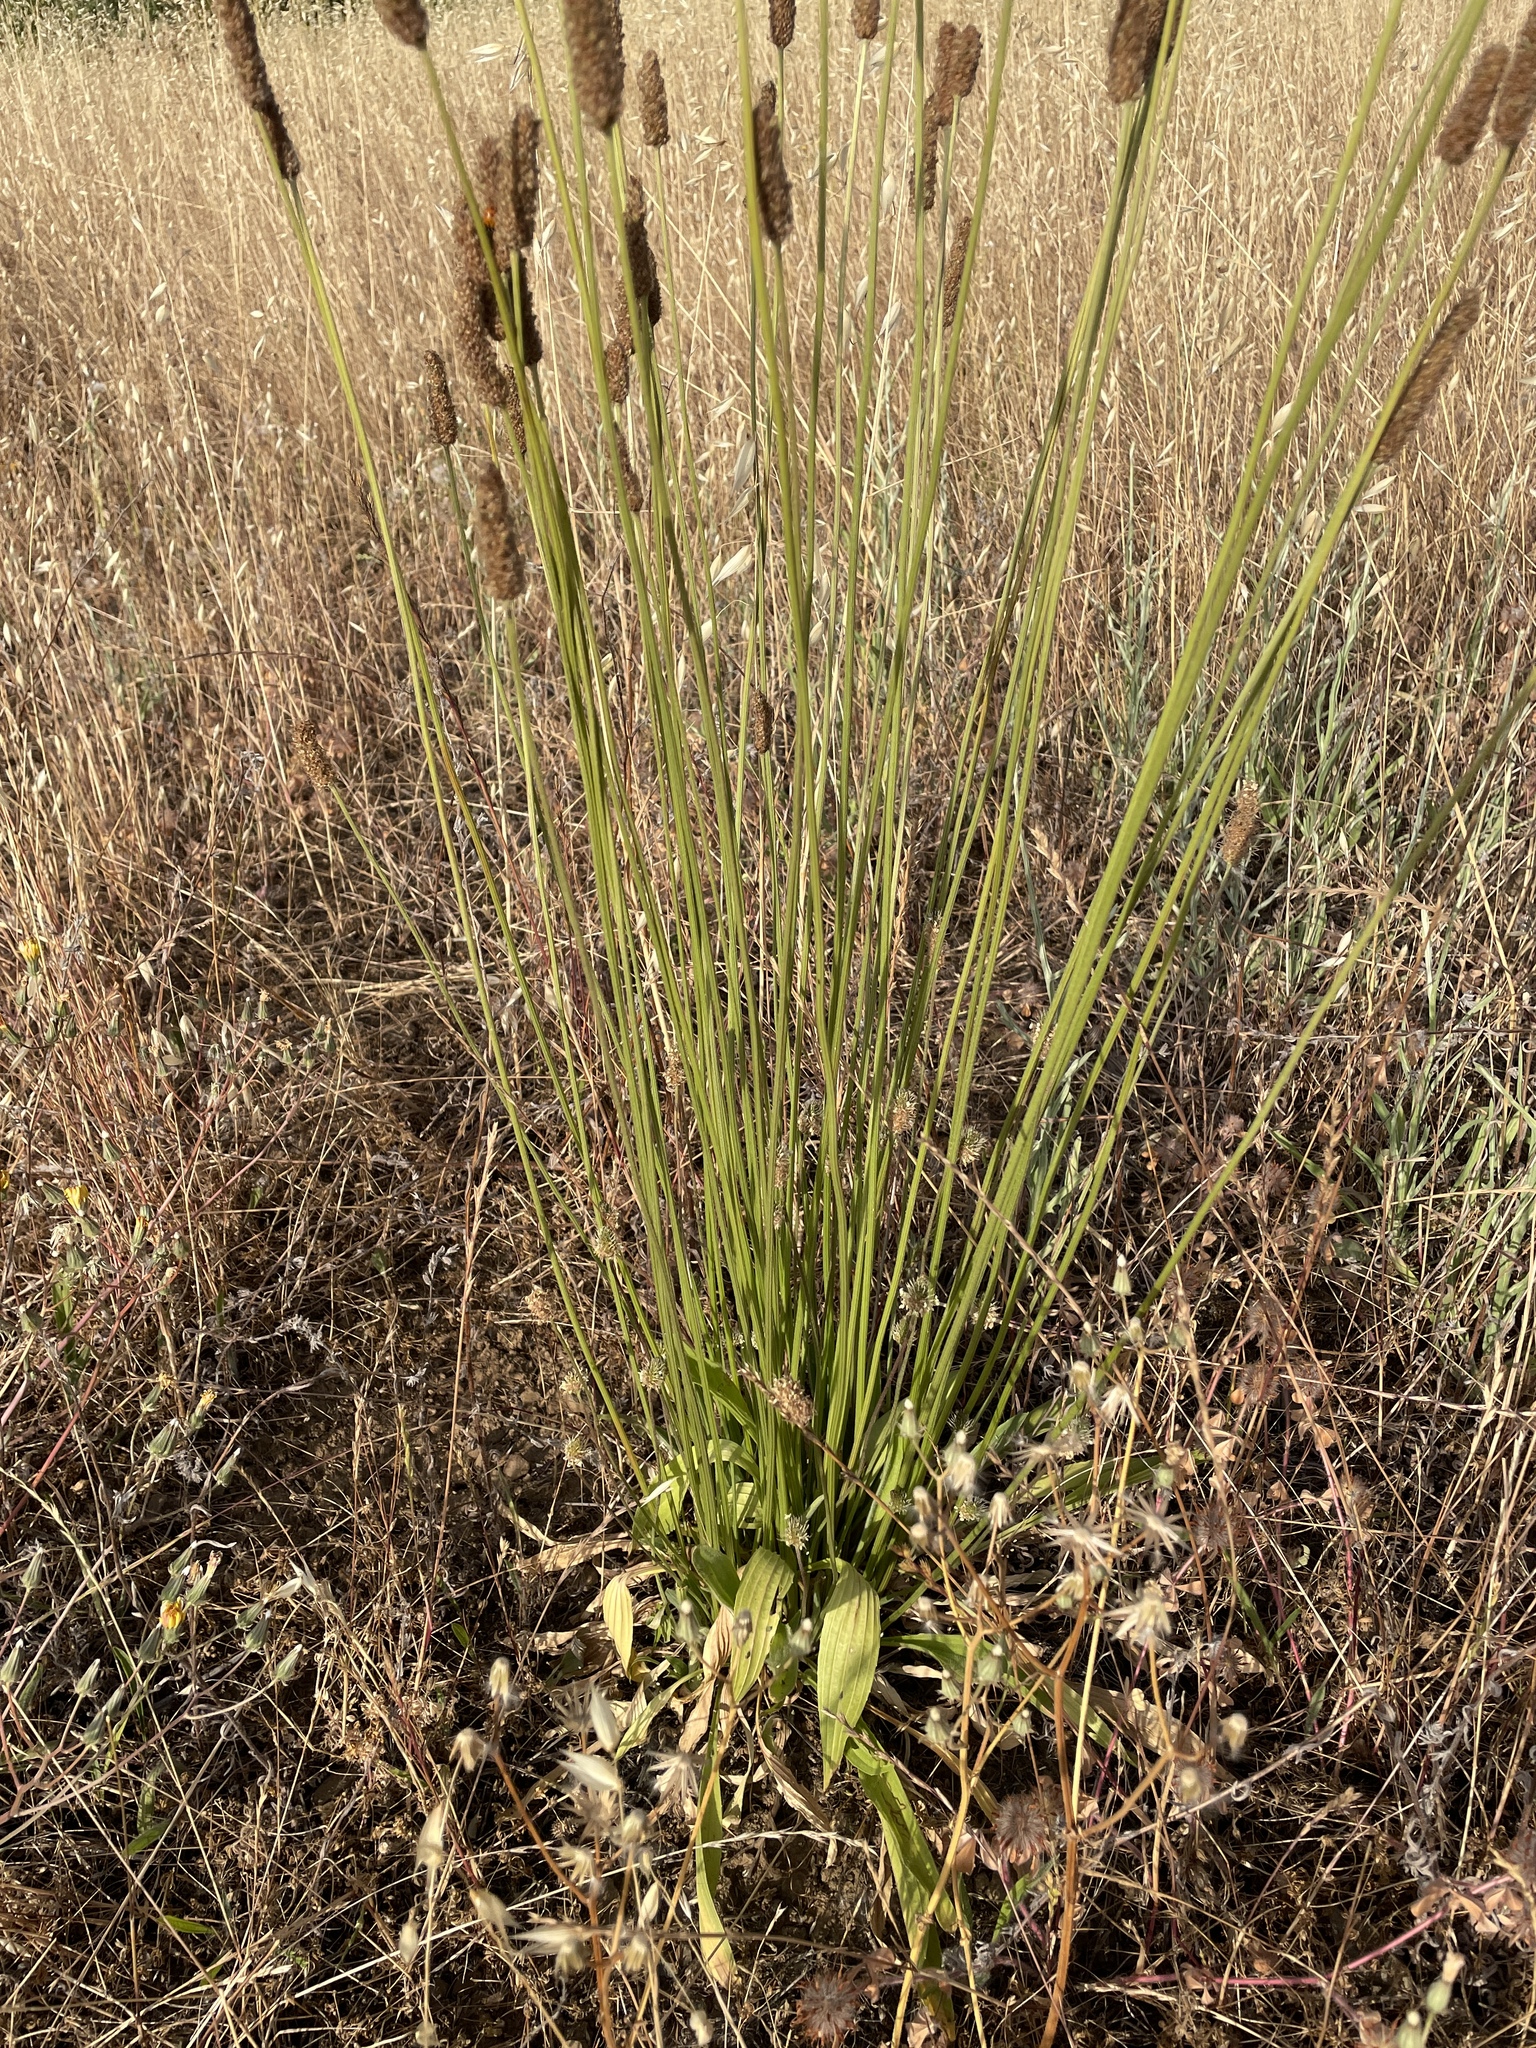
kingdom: Plantae
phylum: Tracheophyta
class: Magnoliopsida
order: Lamiales
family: Plantaginaceae
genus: Plantago
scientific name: Plantago lanceolata
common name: Ribwort plantain
